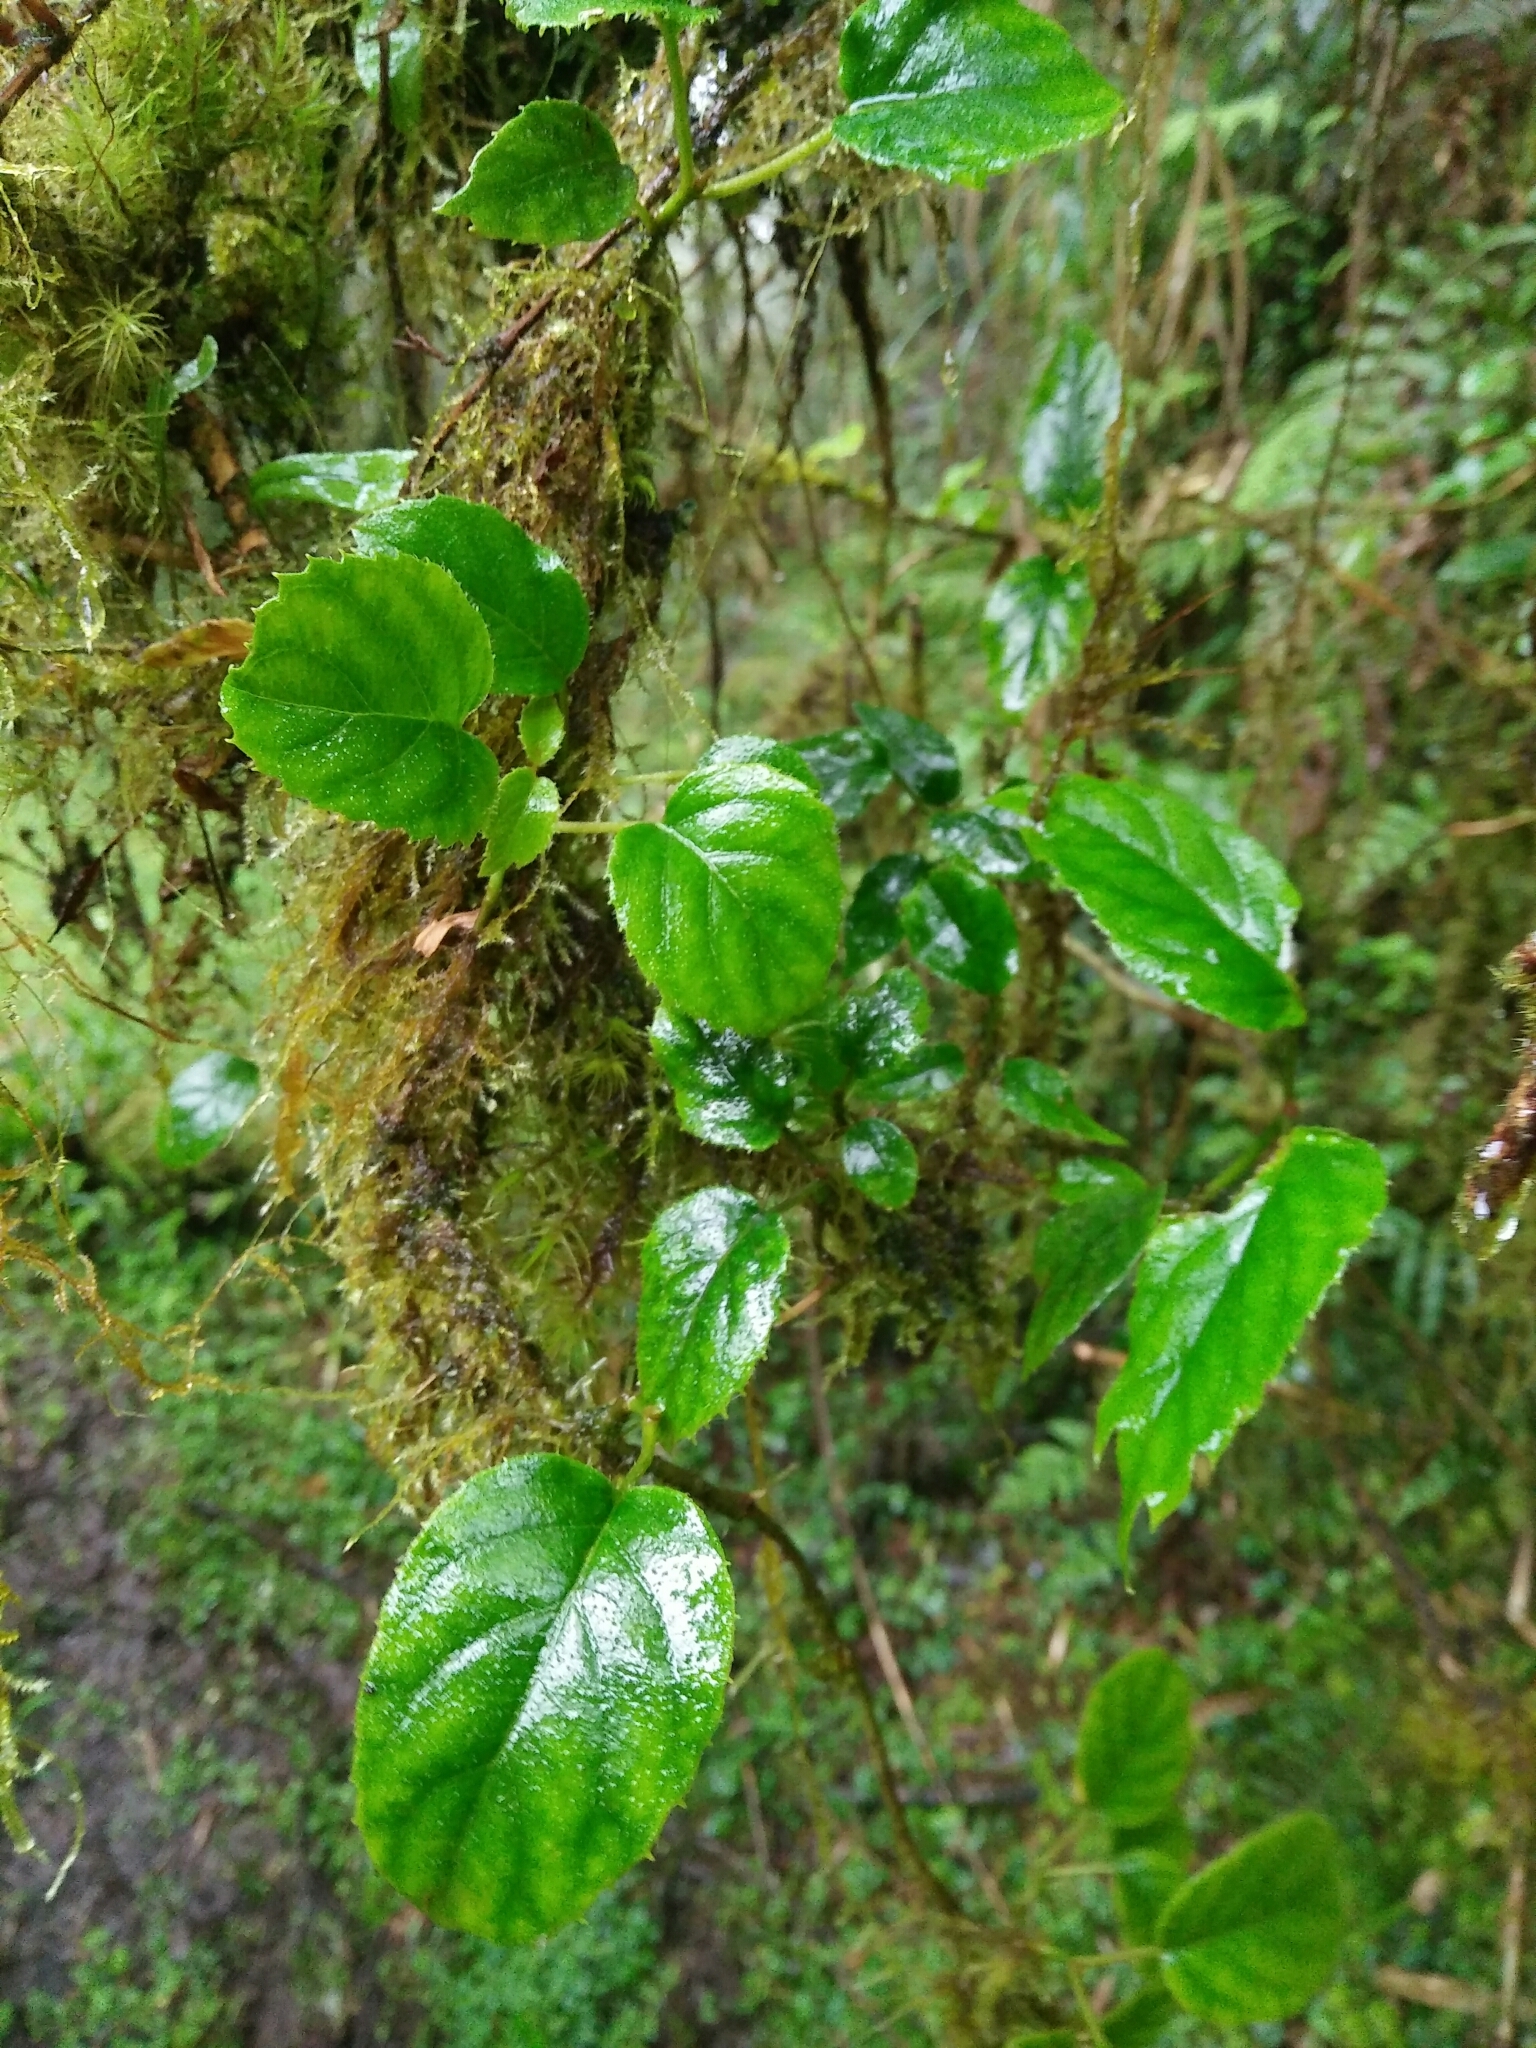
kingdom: Plantae
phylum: Tracheophyta
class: Magnoliopsida
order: Cornales
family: Hydrangeaceae
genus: Hydrangea
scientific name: Hydrangea fauriei
